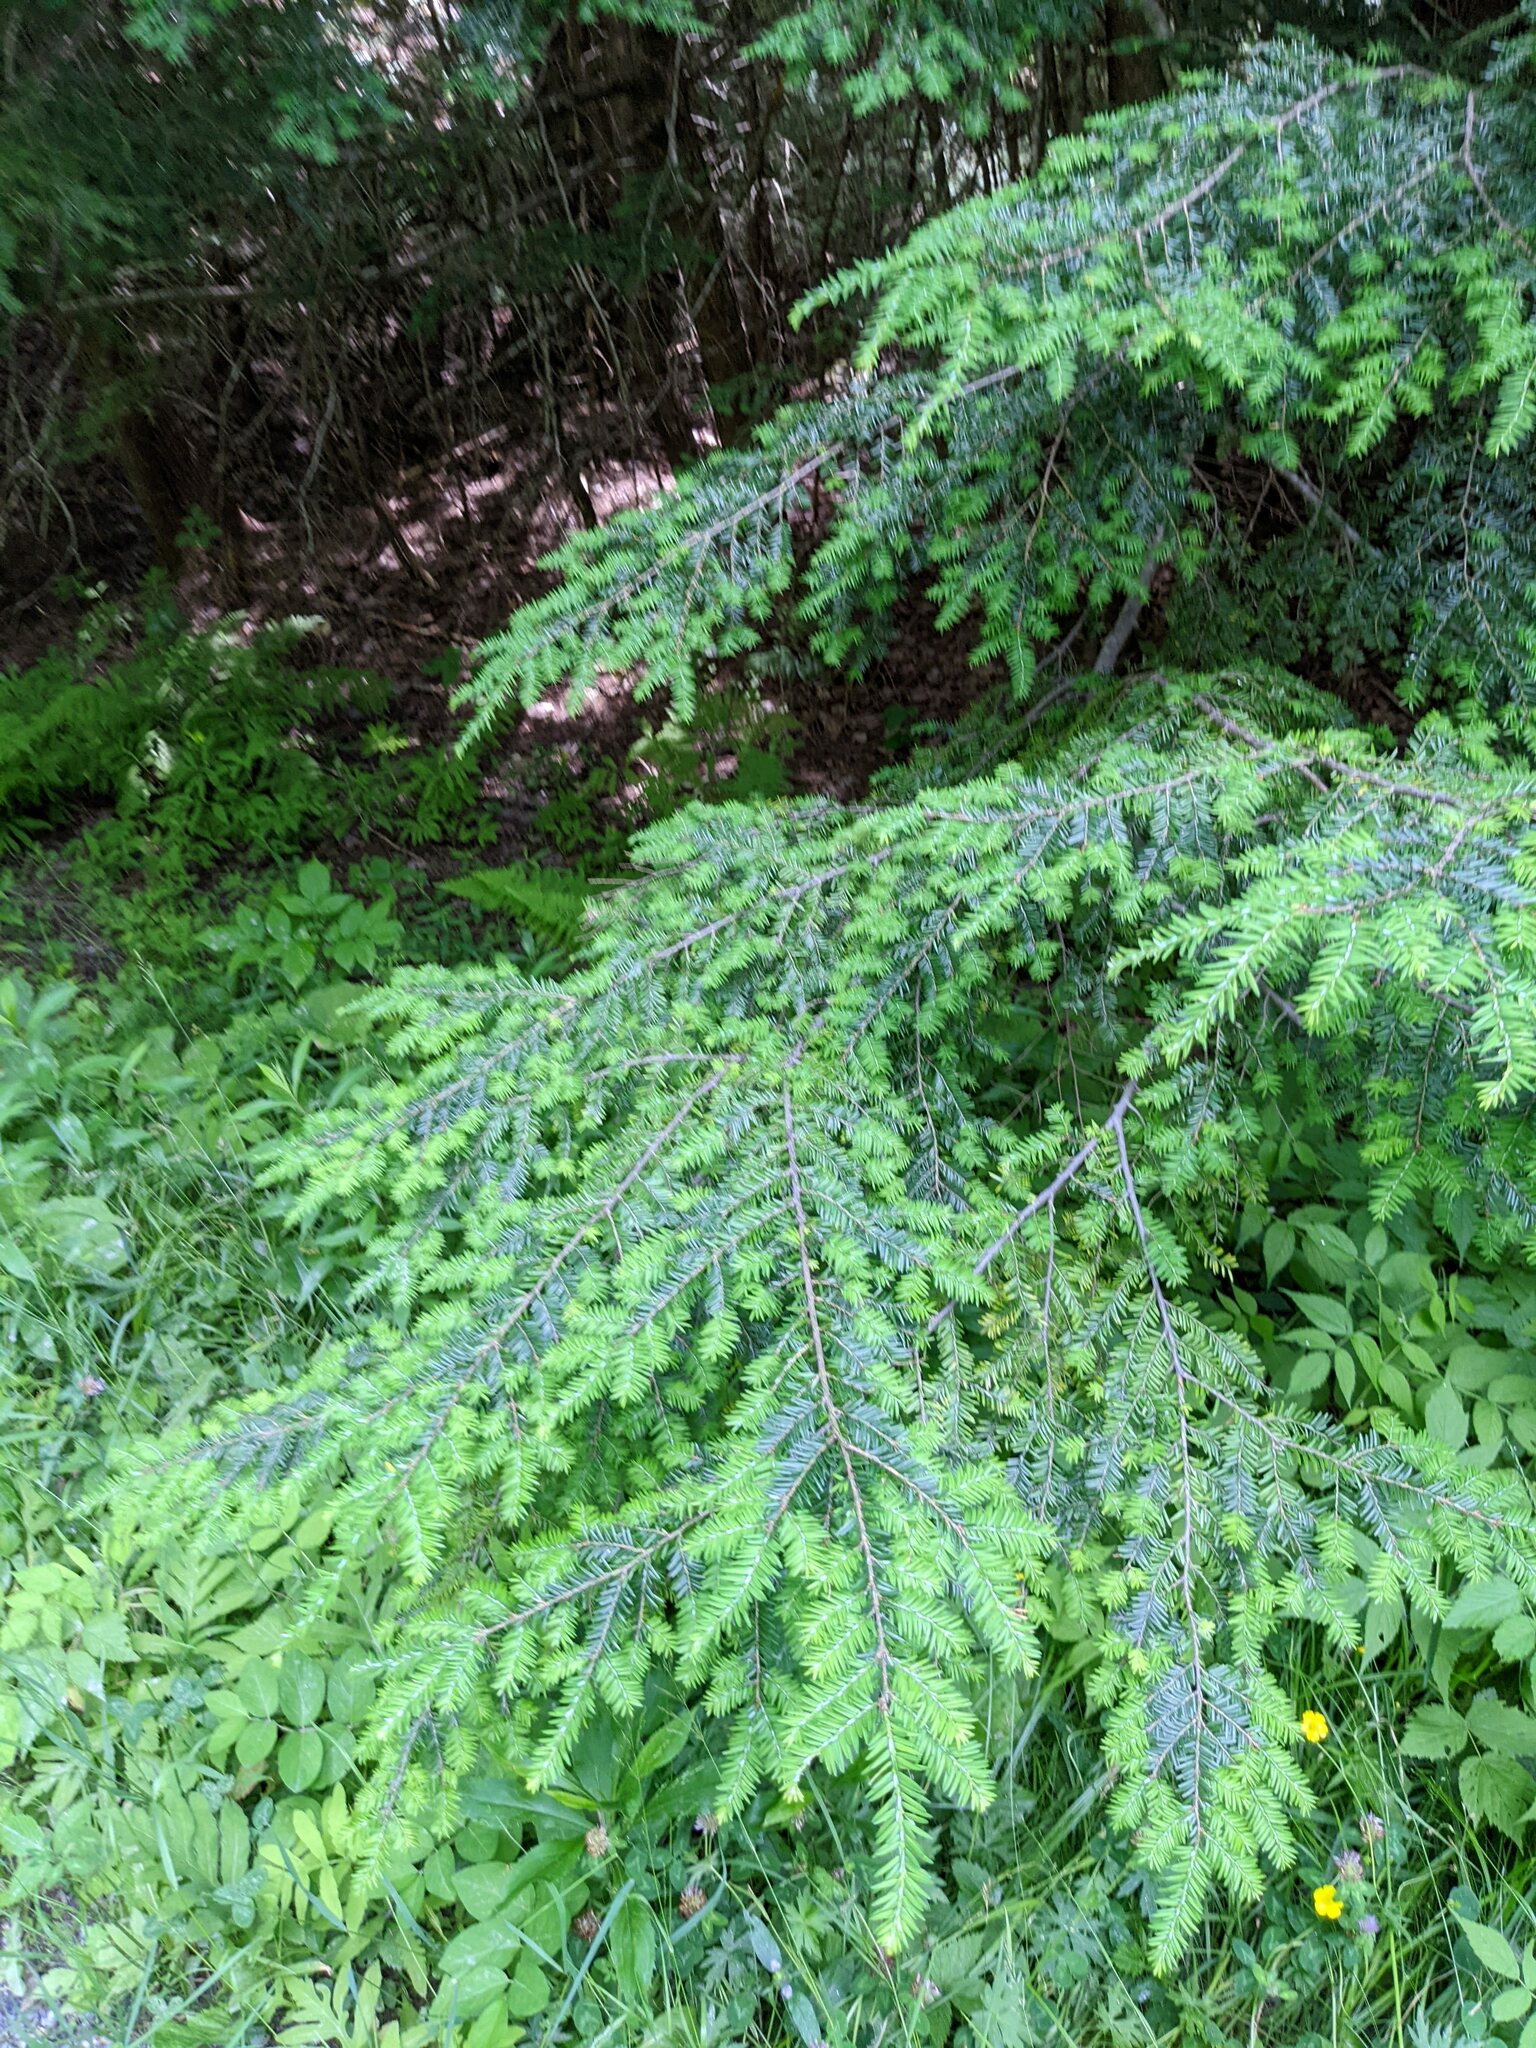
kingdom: Plantae
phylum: Tracheophyta
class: Pinopsida
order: Pinales
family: Pinaceae
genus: Tsuga
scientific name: Tsuga canadensis
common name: Eastern hemlock
